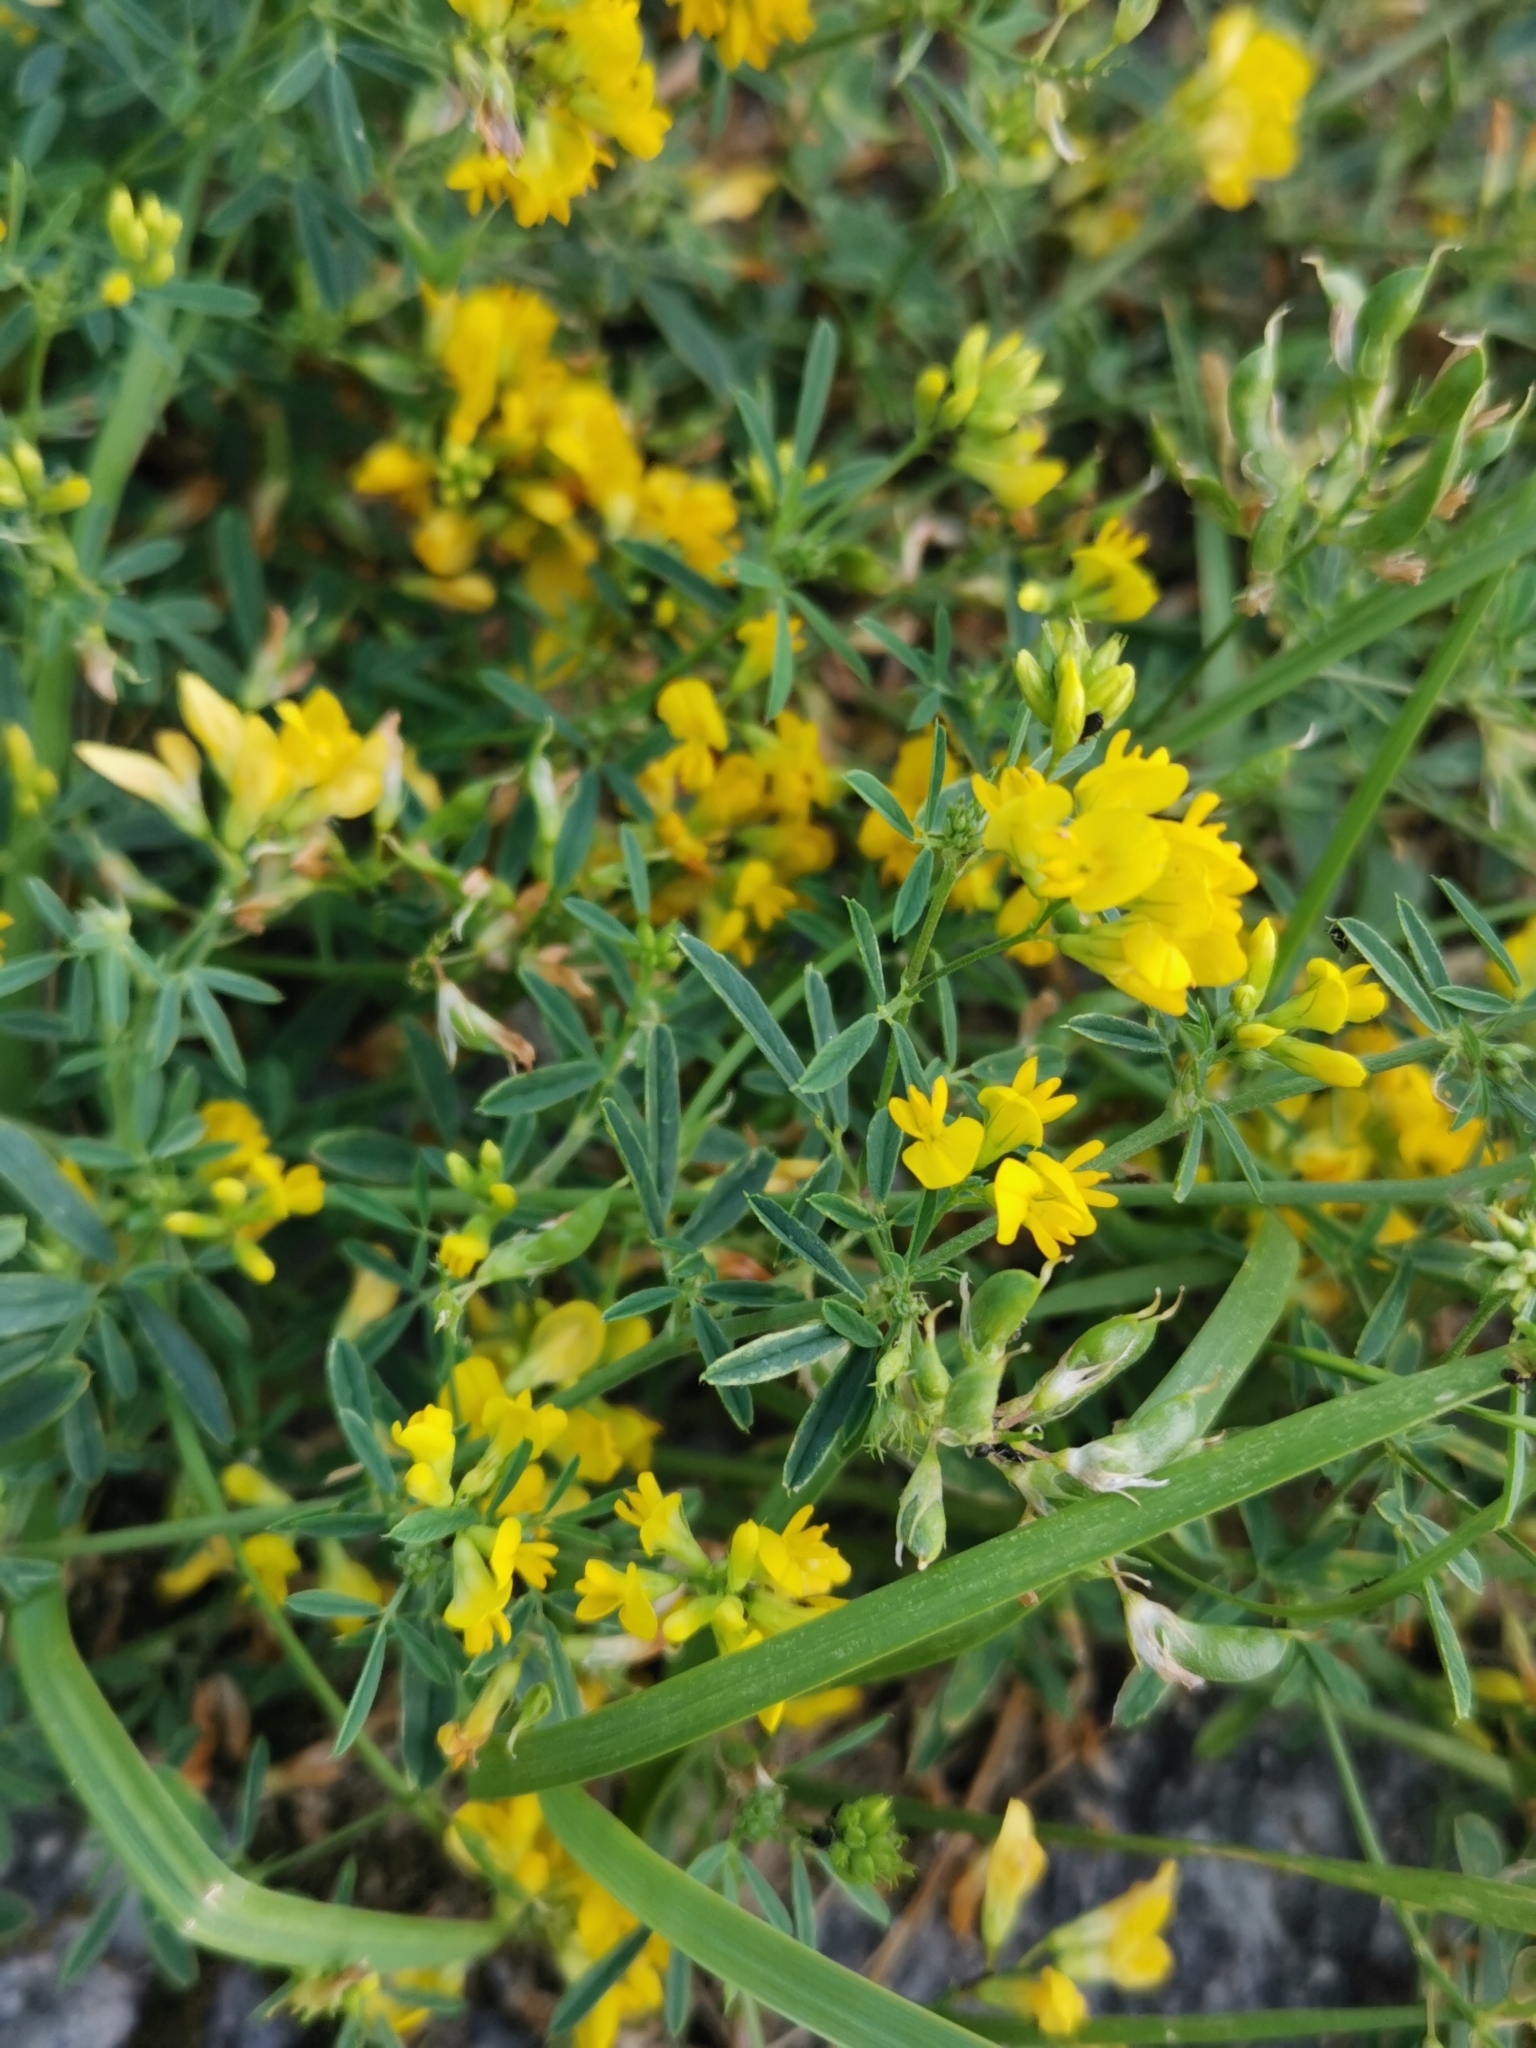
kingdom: Plantae
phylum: Tracheophyta
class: Magnoliopsida
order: Fabales
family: Fabaceae
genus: Medicago
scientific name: Medicago falcata
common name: Sickle medick
